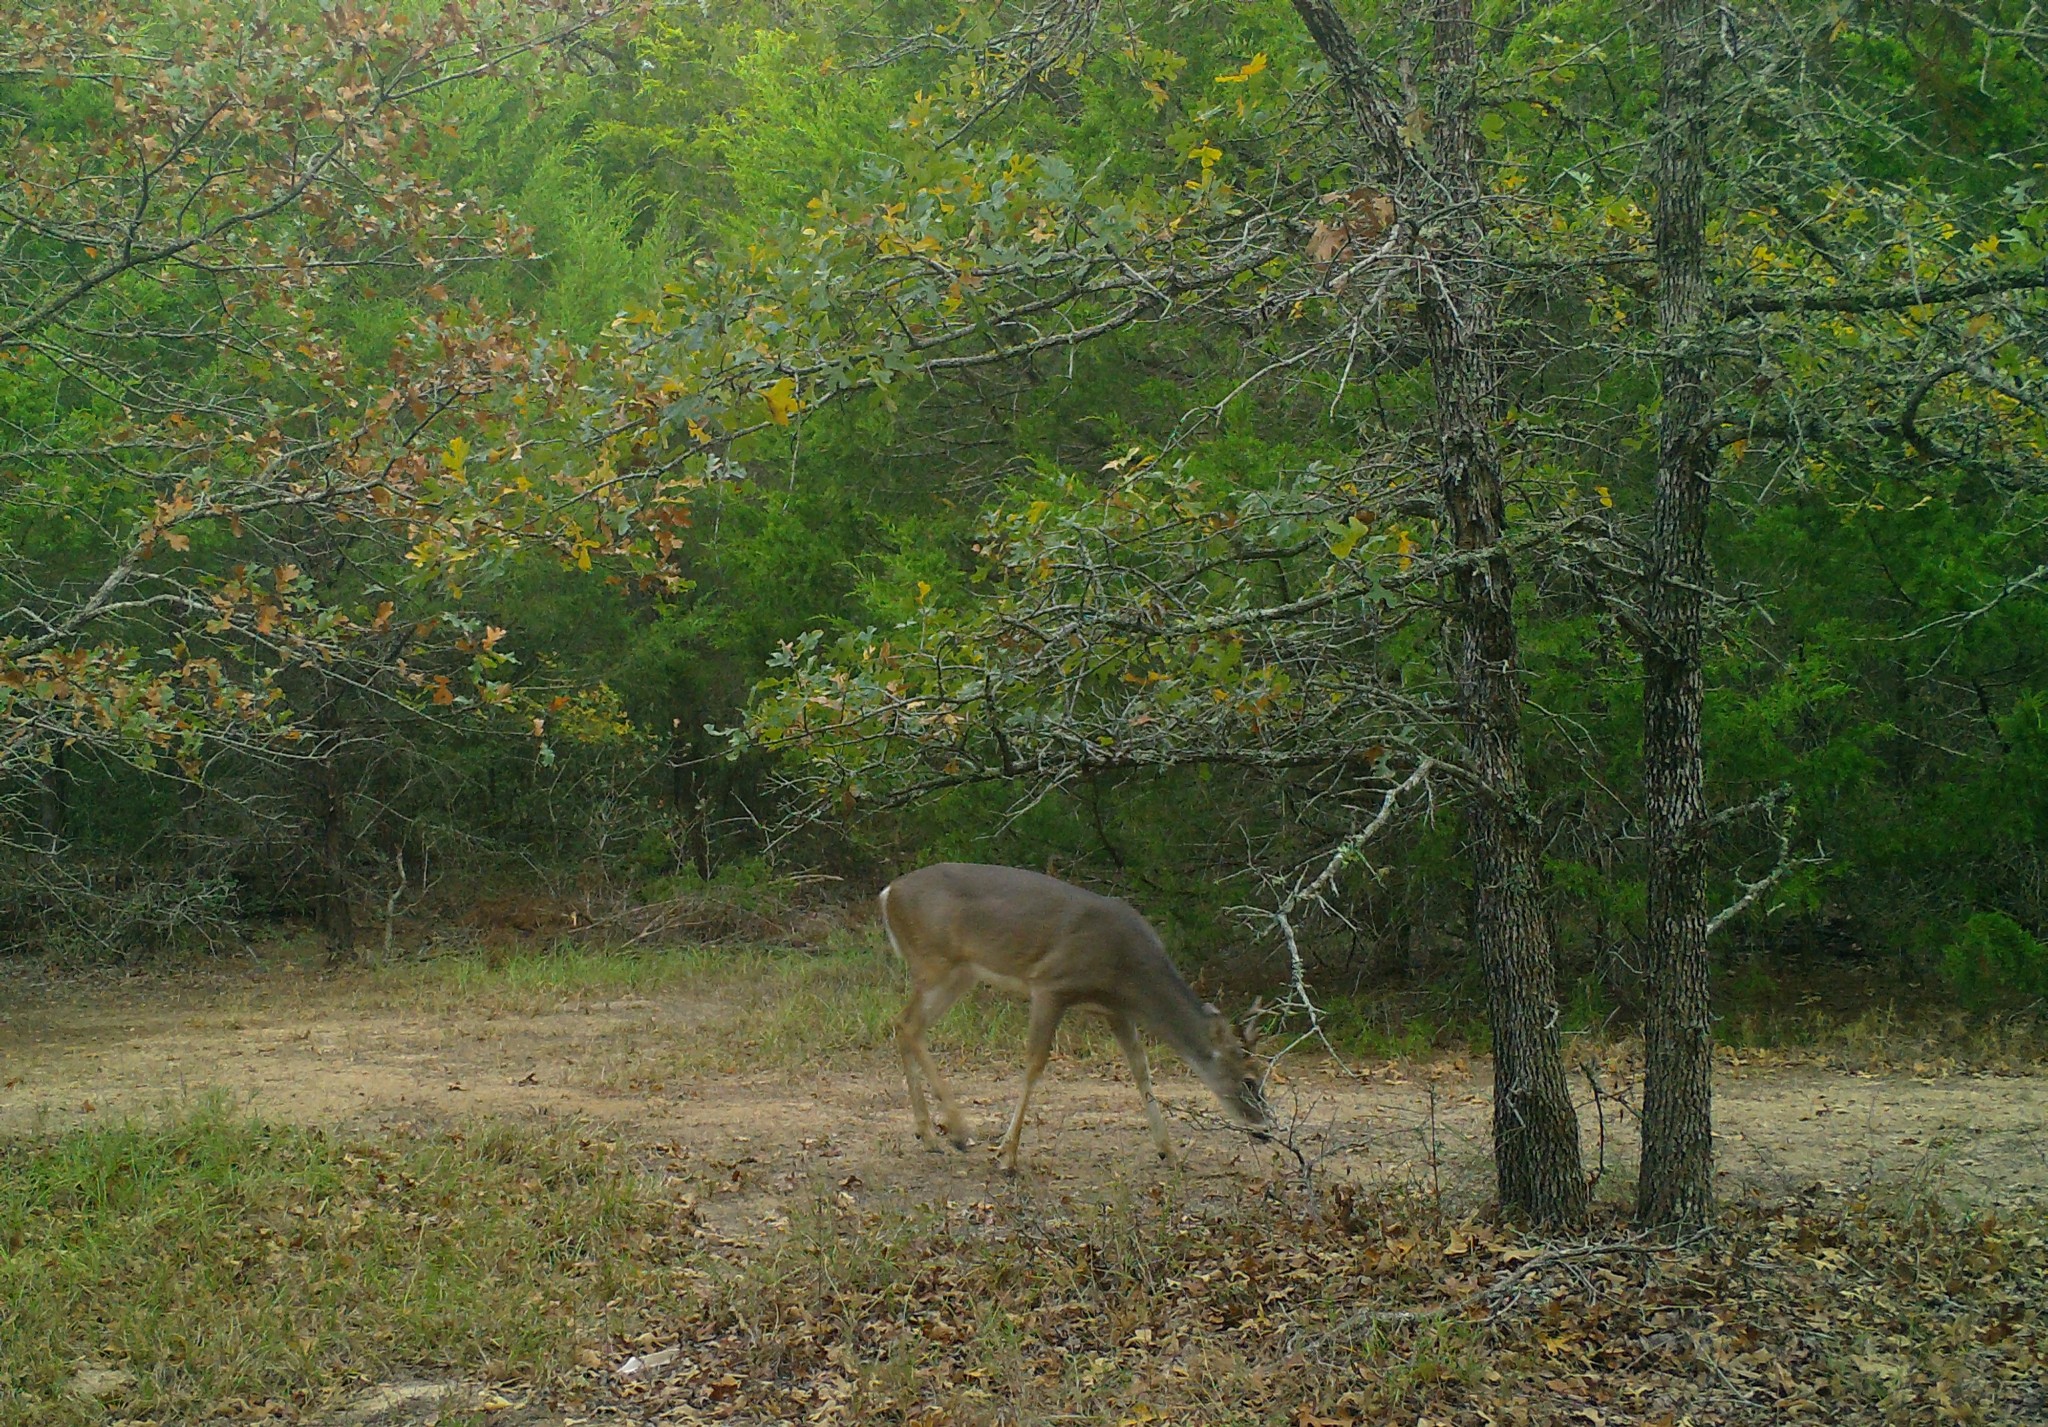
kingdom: Animalia
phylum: Chordata
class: Mammalia
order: Artiodactyla
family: Cervidae
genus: Odocoileus
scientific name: Odocoileus virginianus
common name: White-tailed deer
